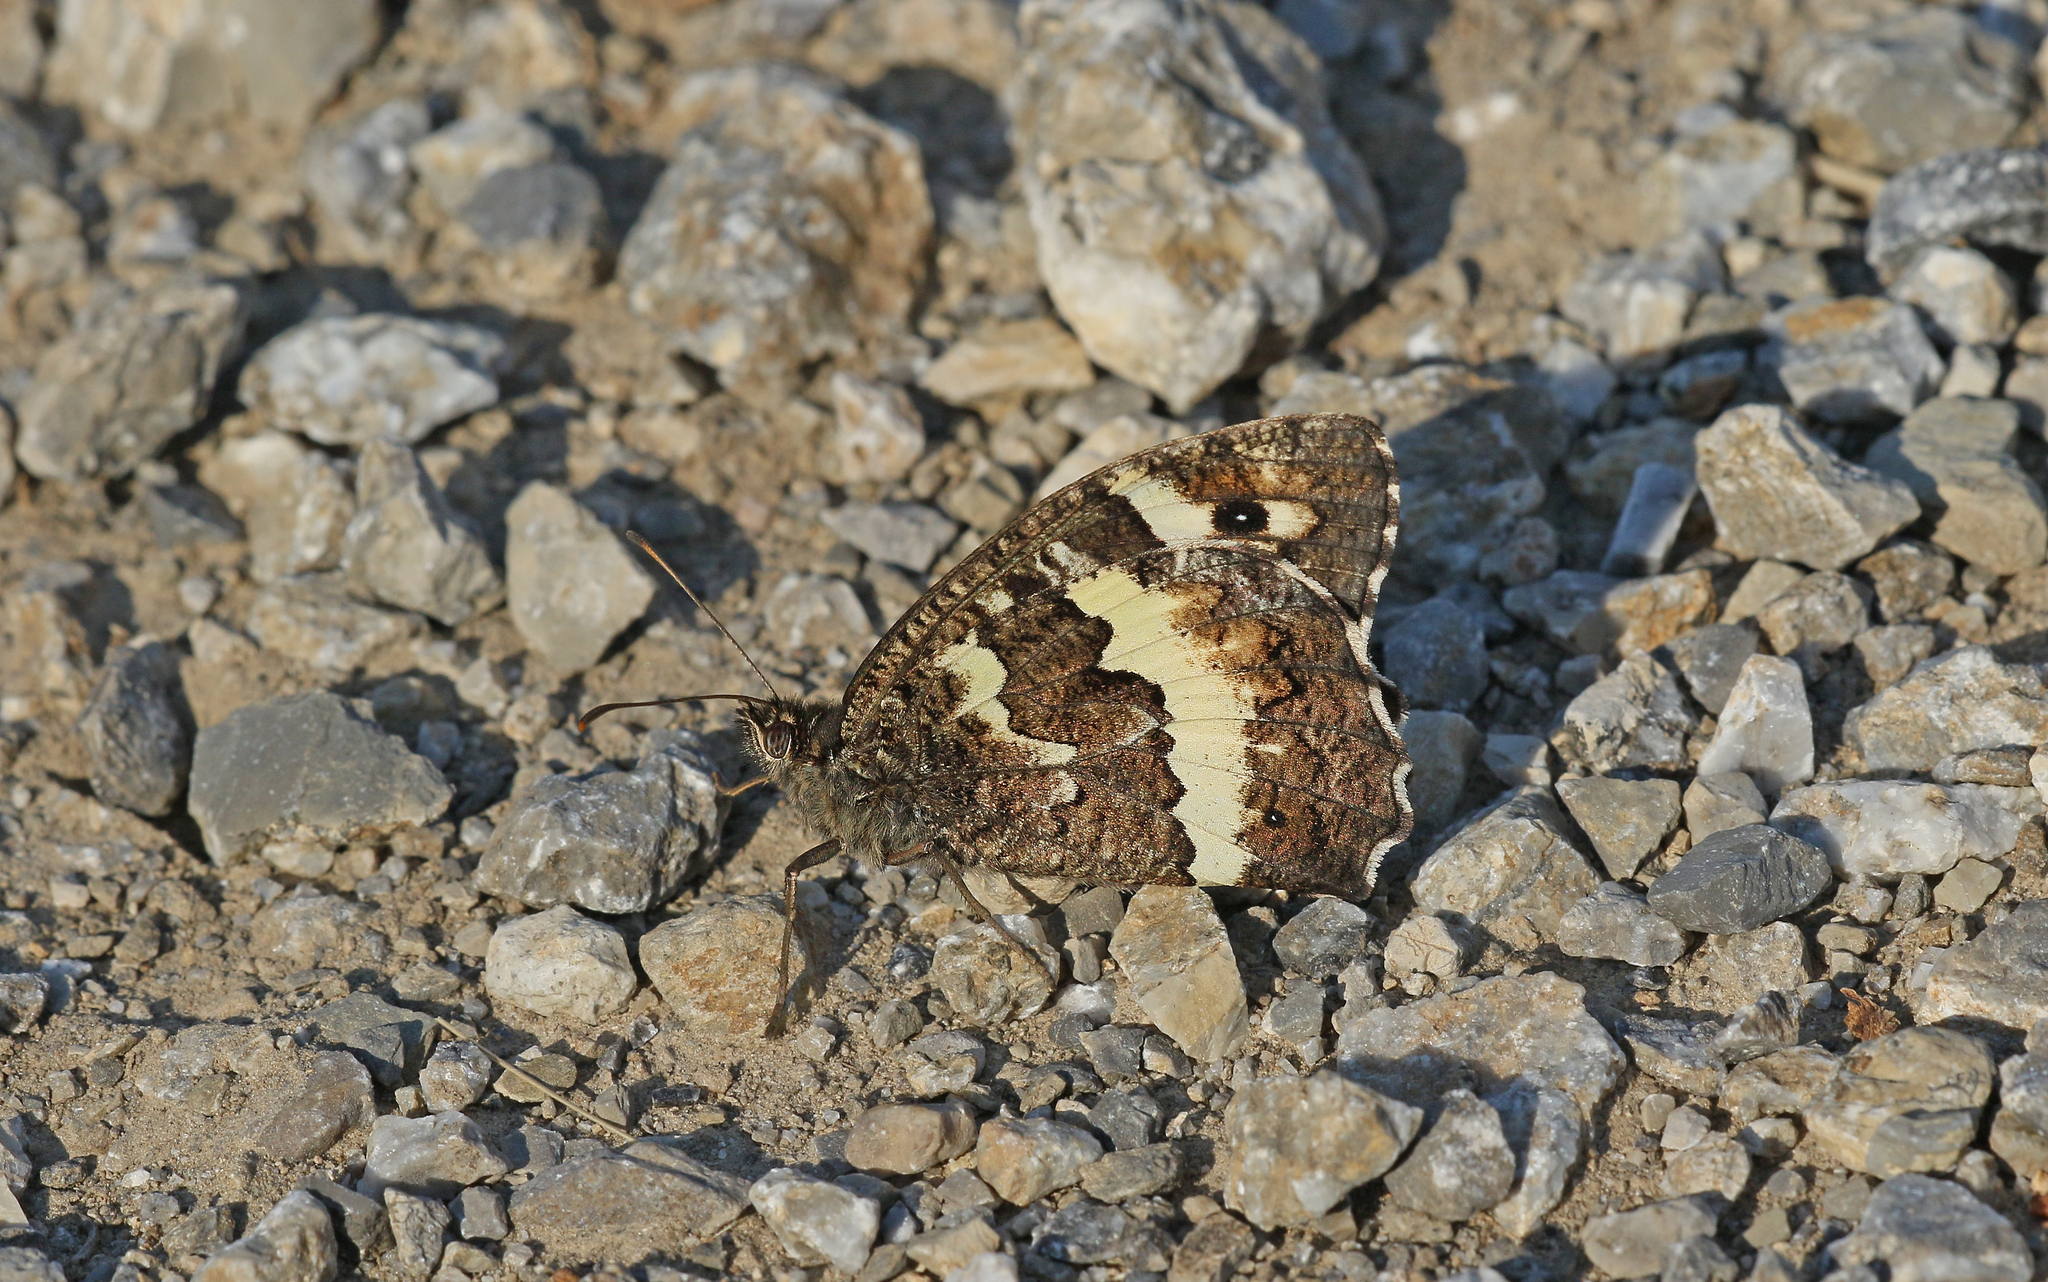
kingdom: Animalia
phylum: Arthropoda
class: Insecta
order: Lepidoptera
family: Lycaenidae
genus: Loweia
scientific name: Loweia tityrus
